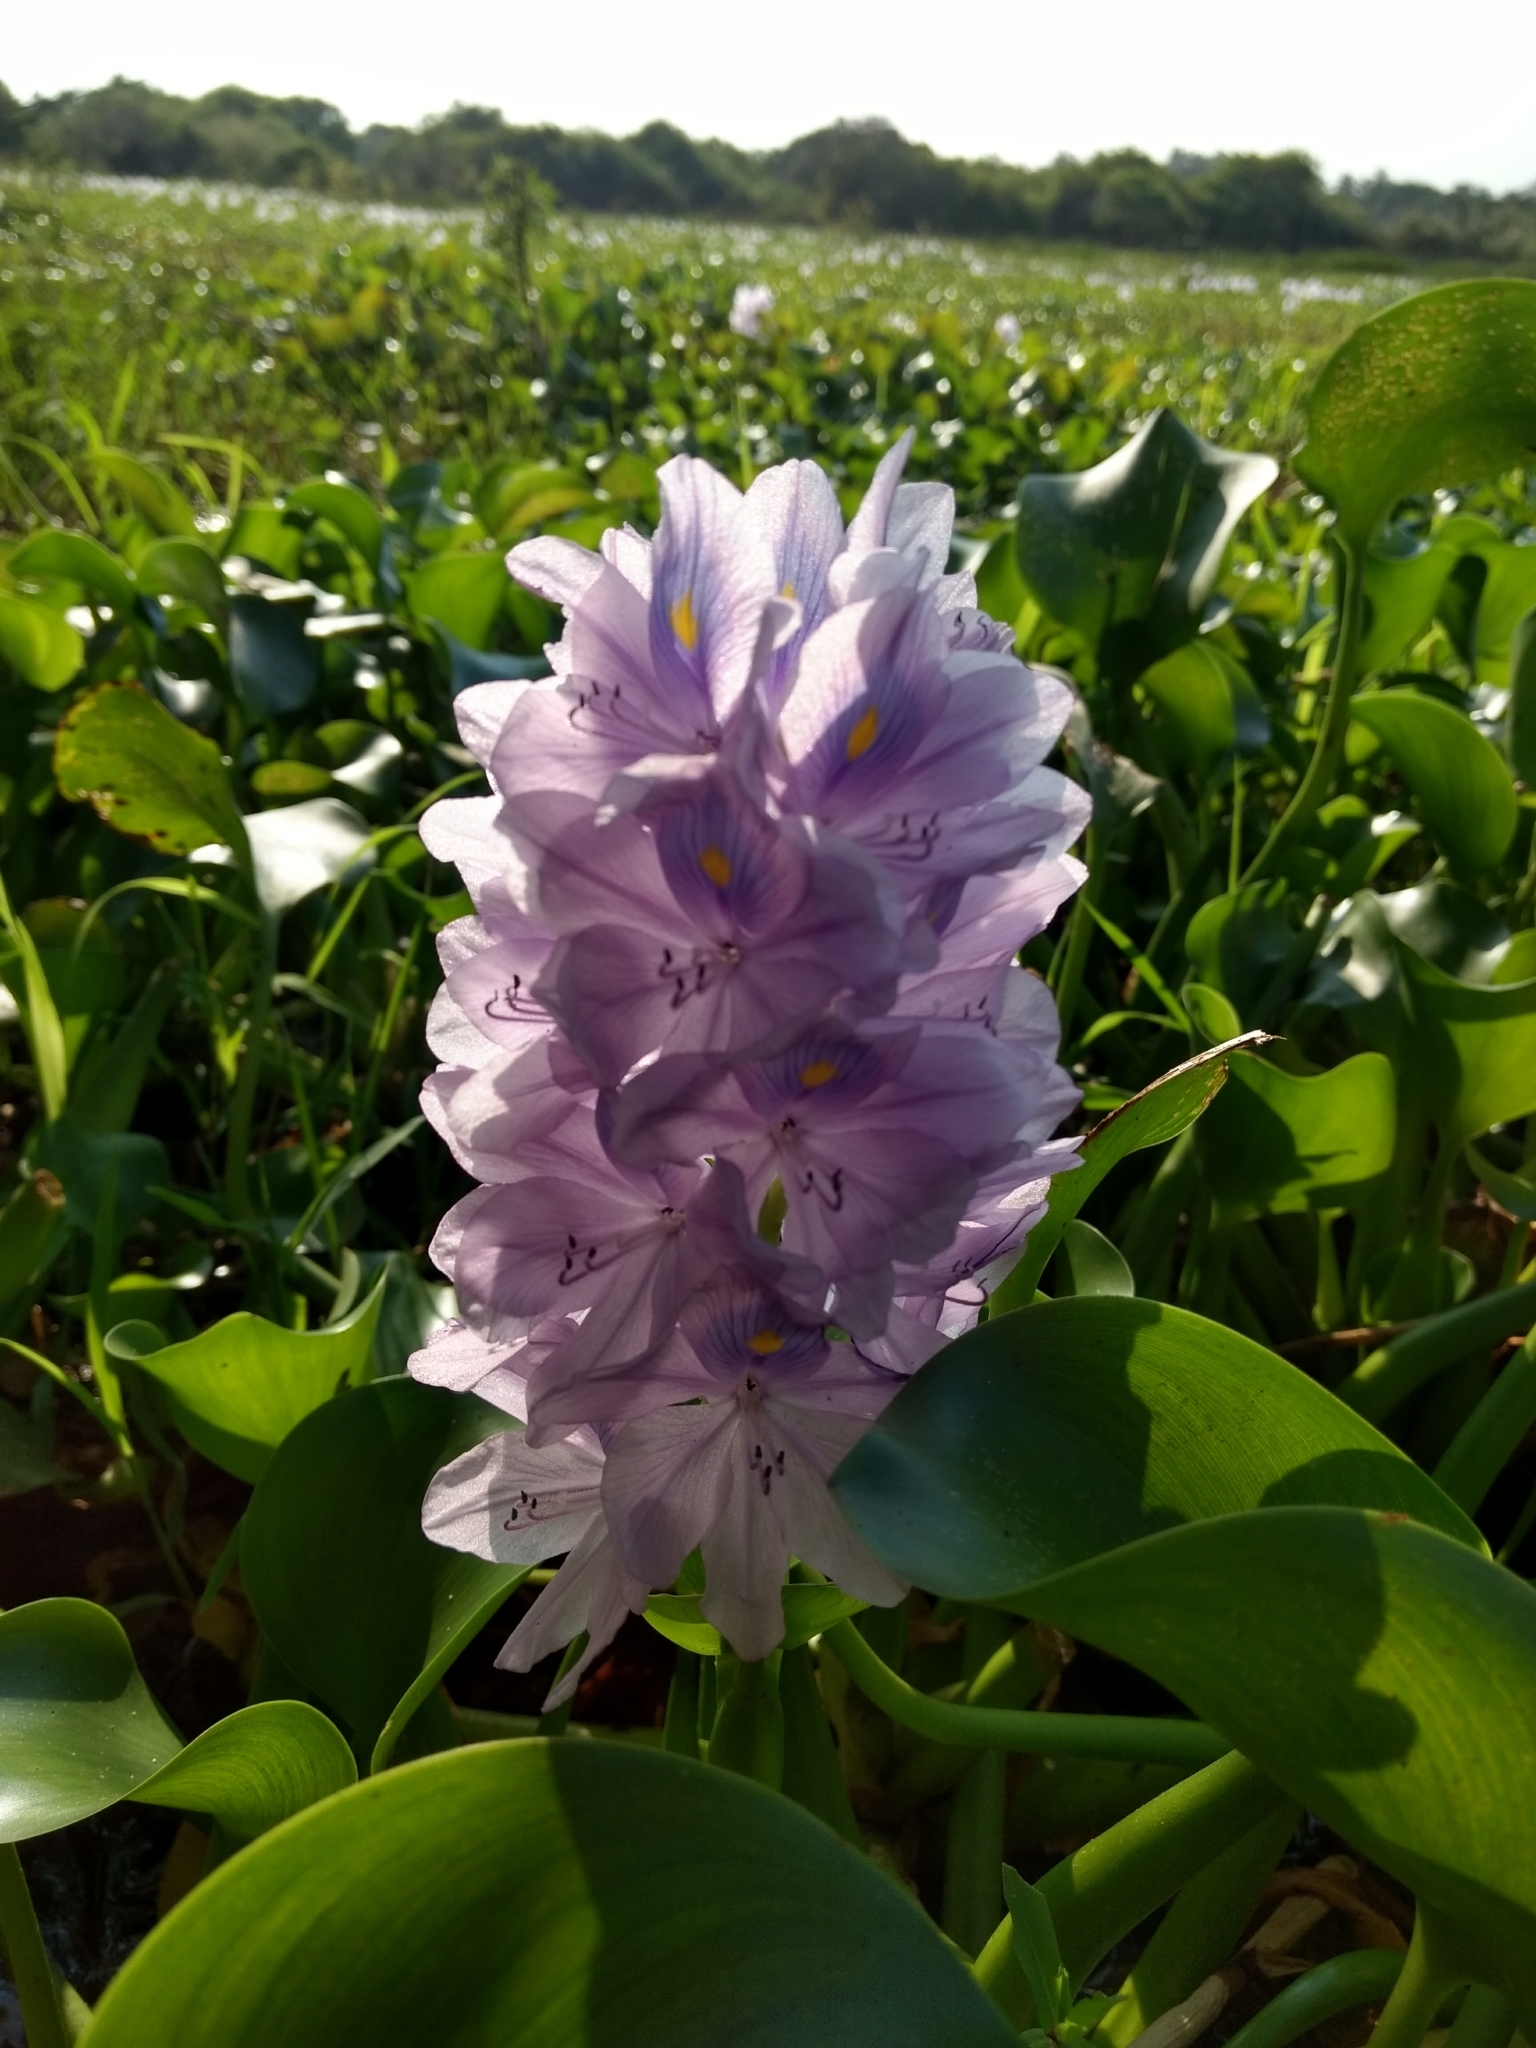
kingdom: Plantae
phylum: Tracheophyta
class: Liliopsida
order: Commelinales
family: Pontederiaceae
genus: Pontederia
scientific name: Pontederia crassipes
